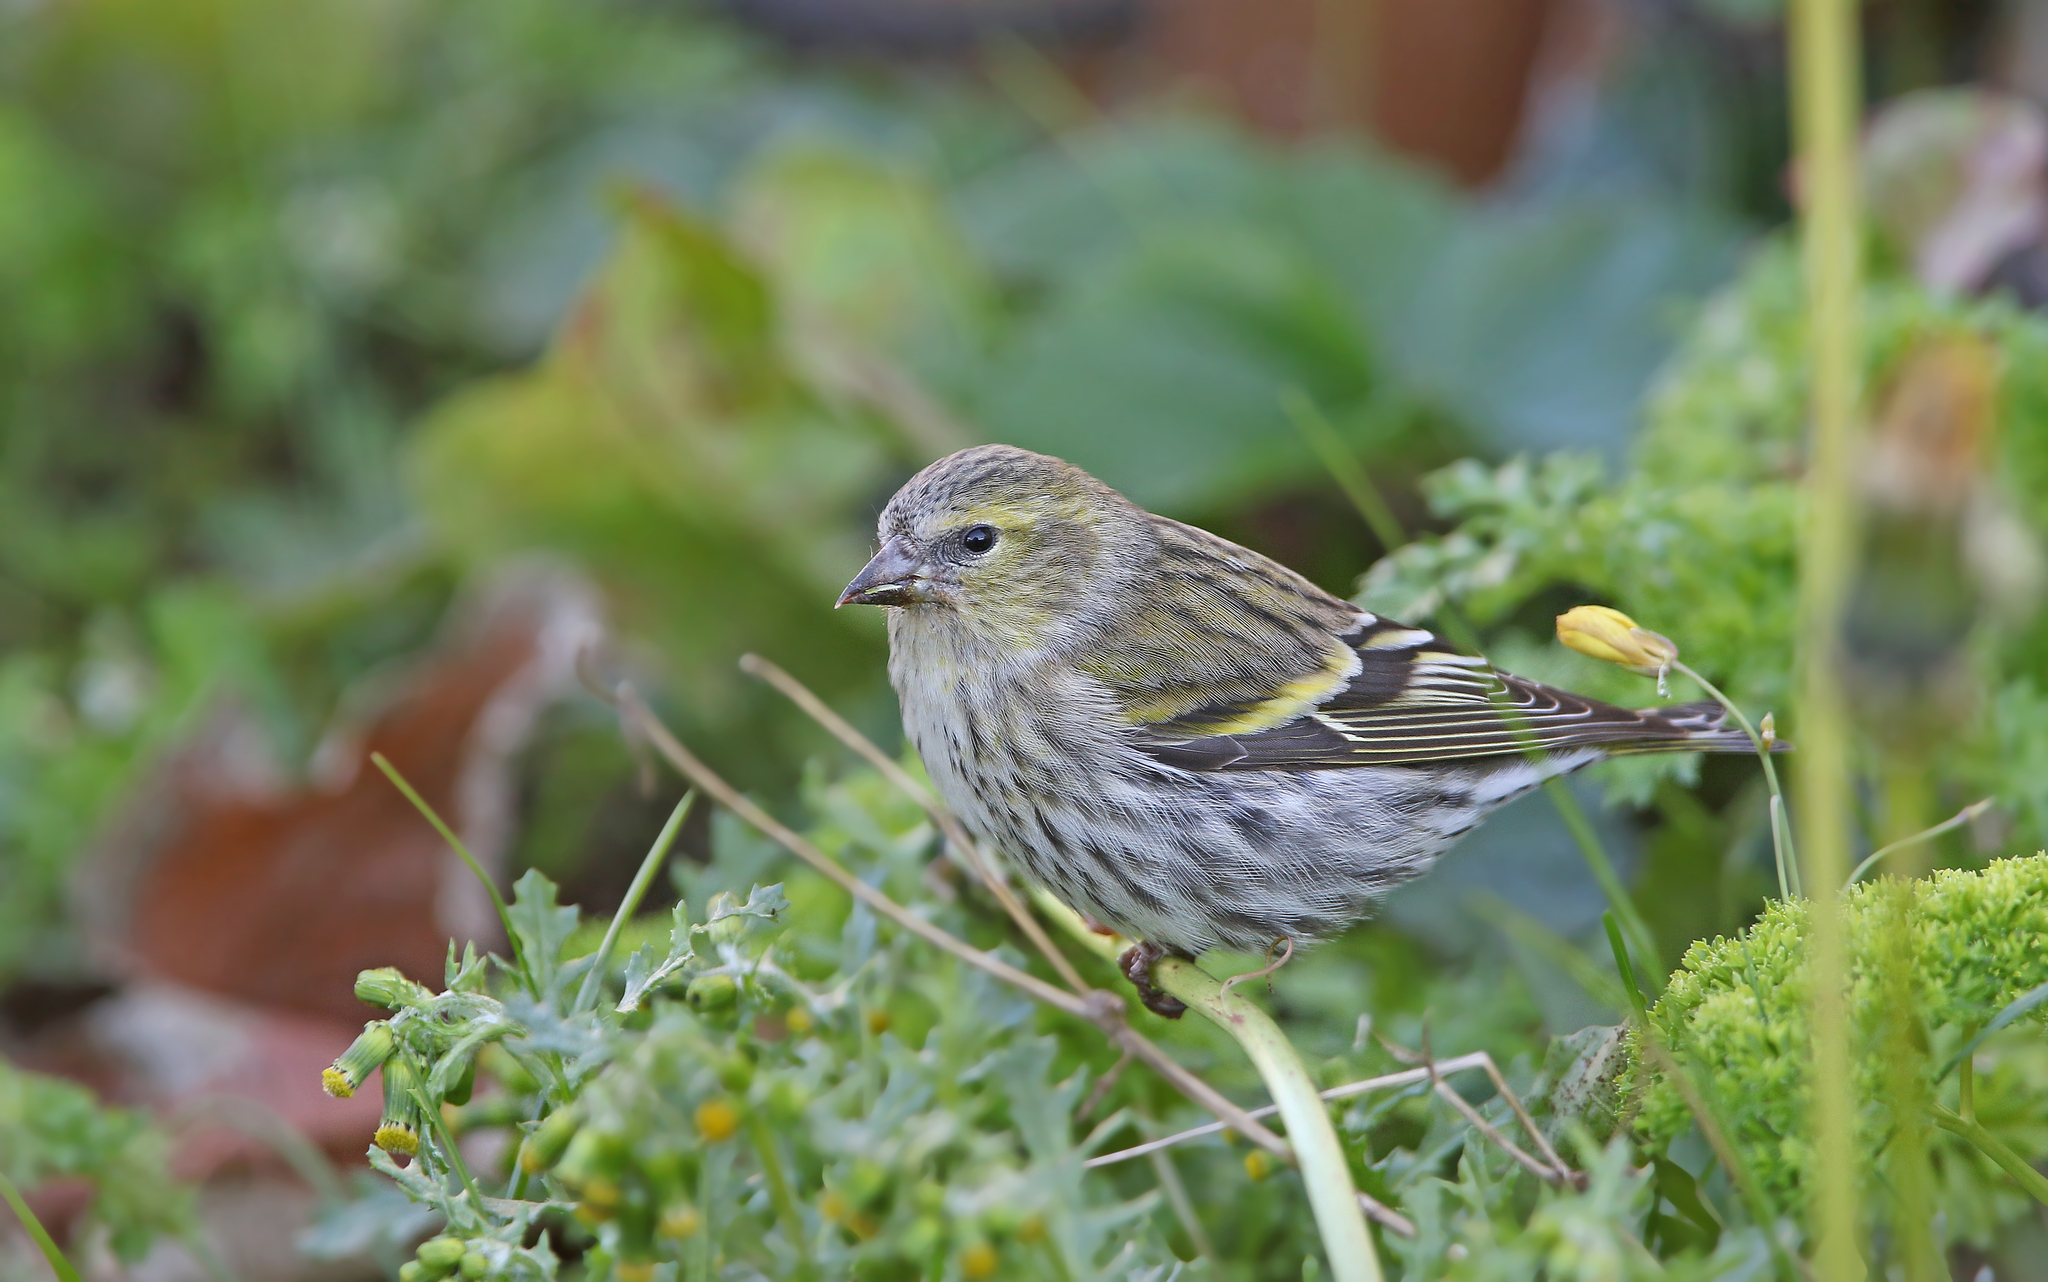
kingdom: Animalia
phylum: Chordata
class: Aves
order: Passeriformes
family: Fringillidae
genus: Spinus
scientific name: Spinus spinus
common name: Eurasian siskin
